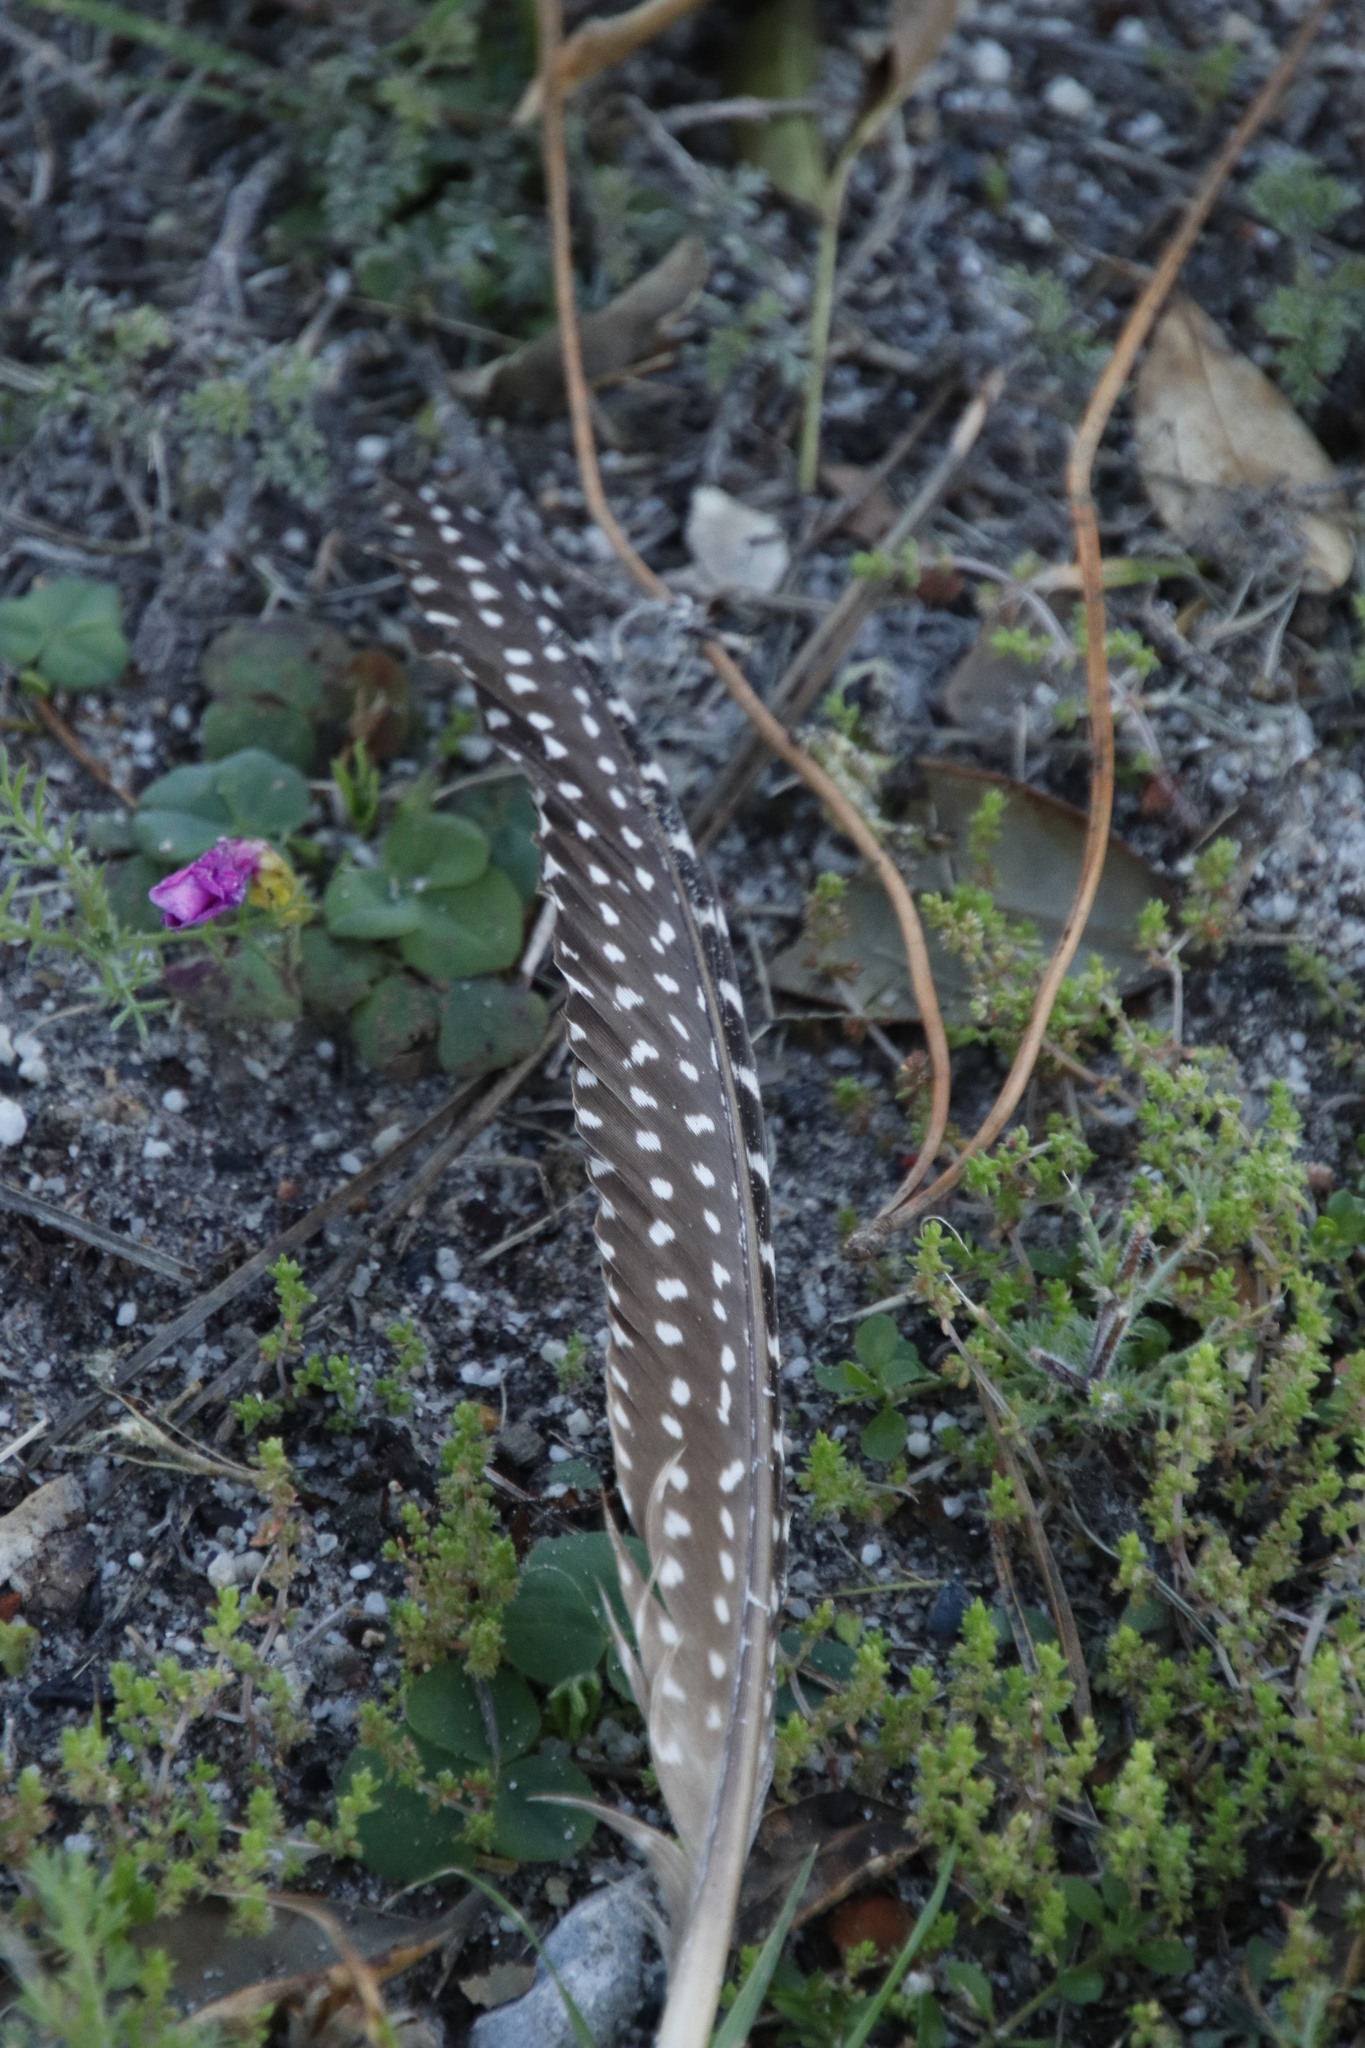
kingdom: Animalia
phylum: Chordata
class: Aves
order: Galliformes
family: Numididae
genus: Numida
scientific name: Numida meleagris
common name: Helmeted guineafowl
